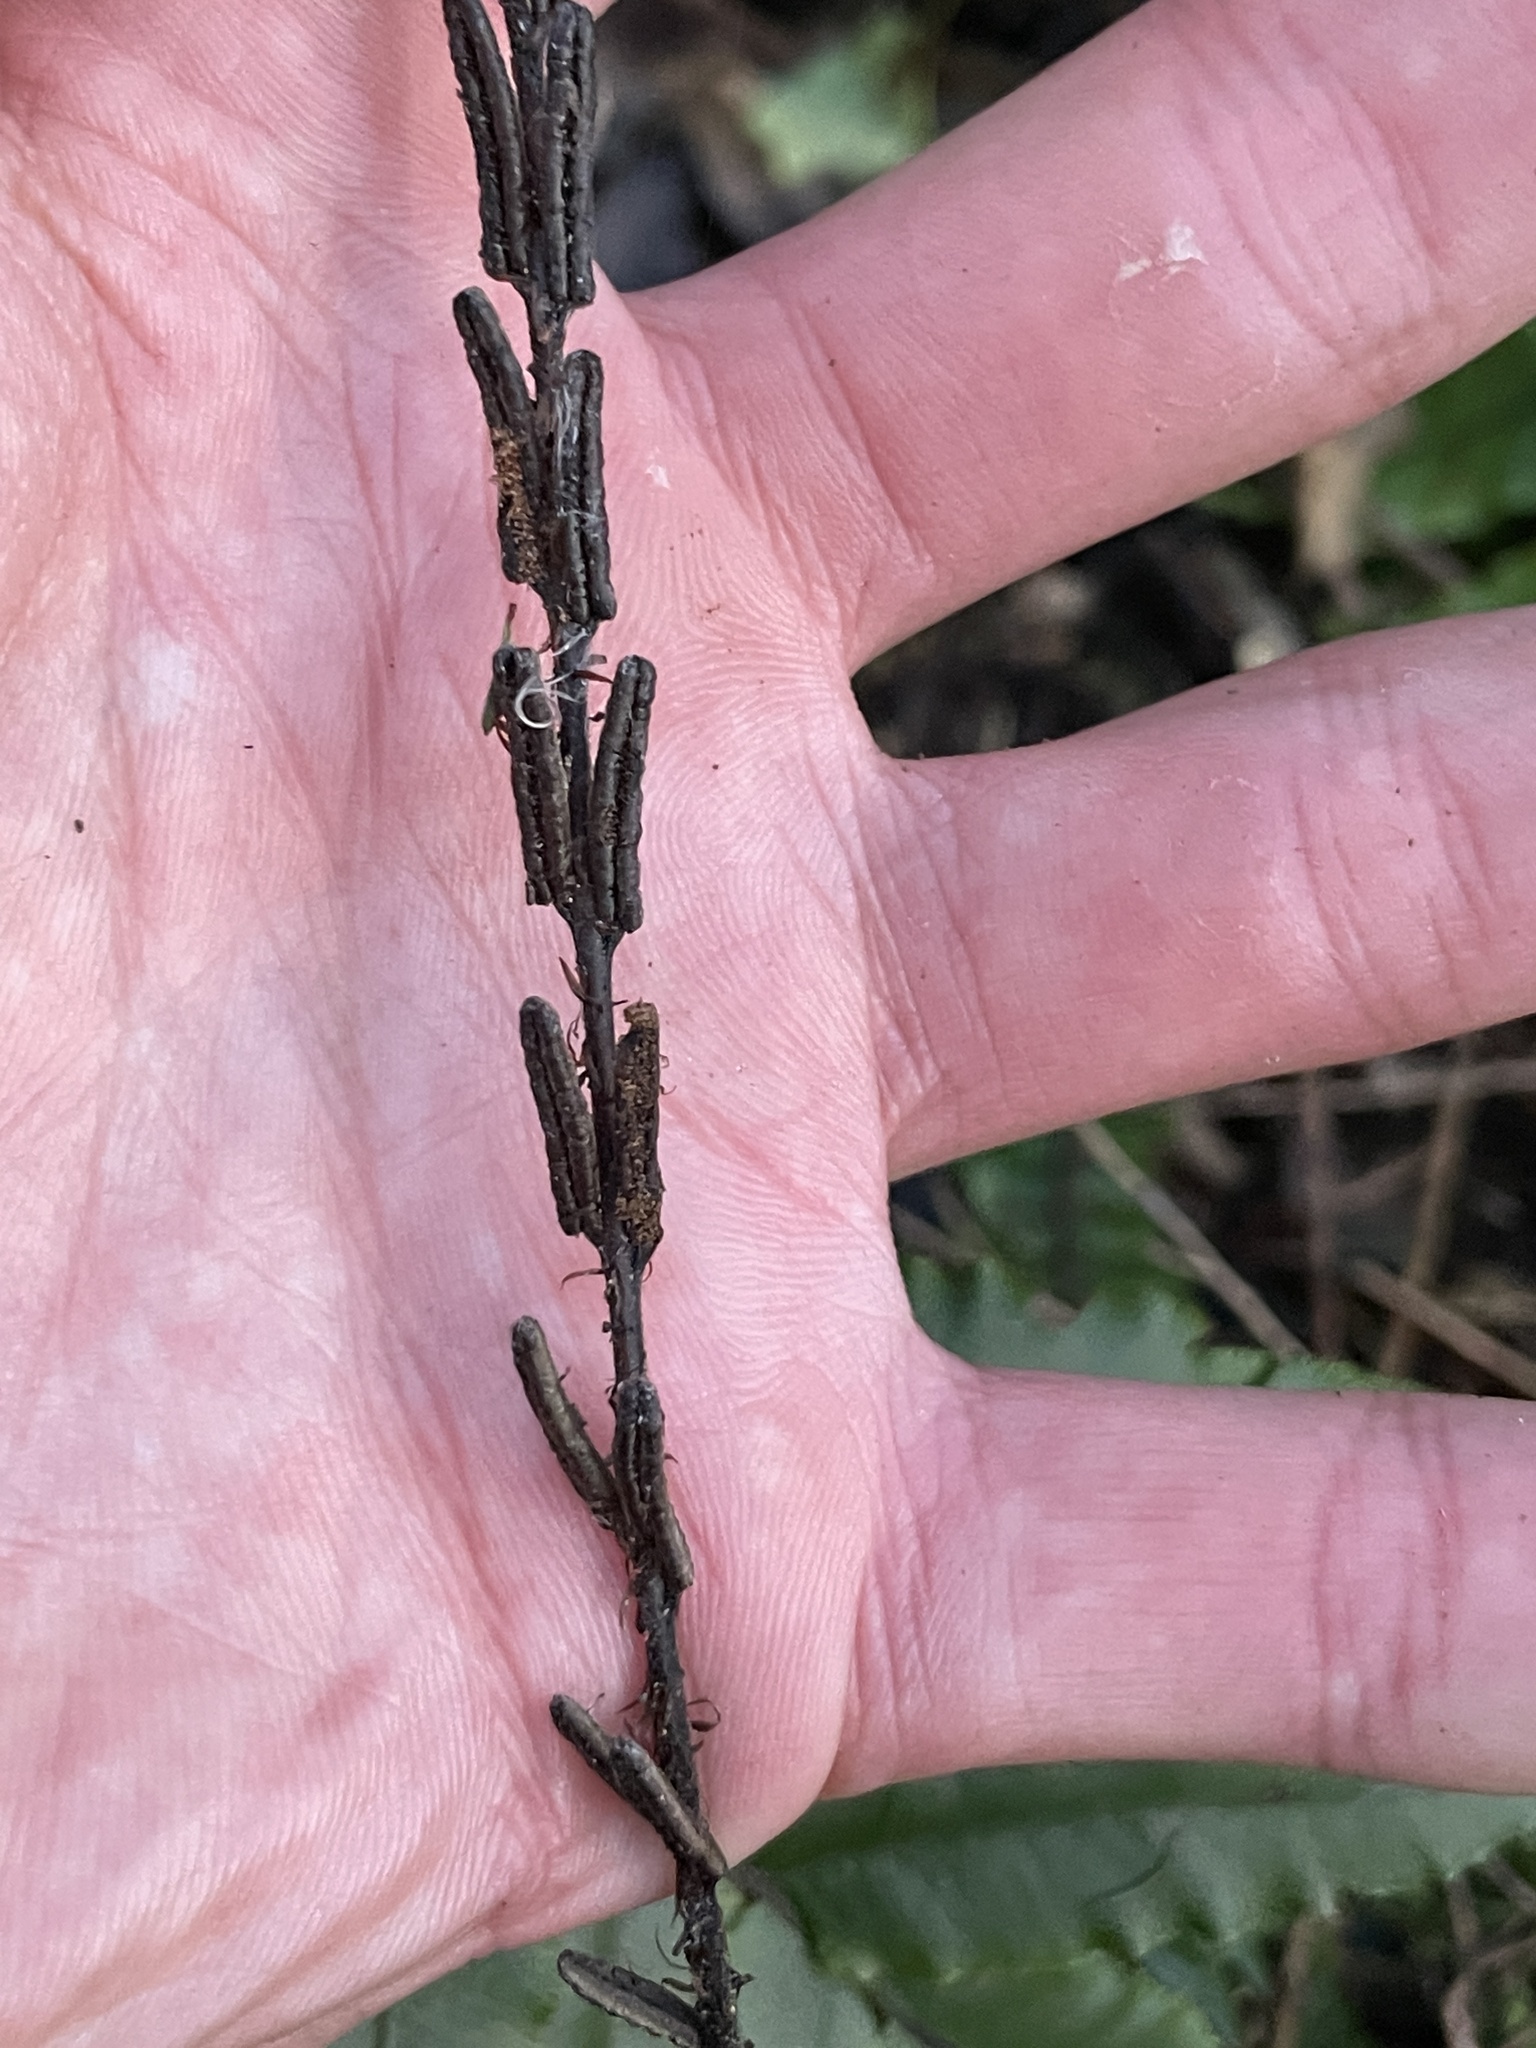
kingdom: Plantae
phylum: Tracheophyta
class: Polypodiopsida
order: Polypodiales
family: Blechnaceae
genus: Cranfillia
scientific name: Cranfillia fluviatilis
